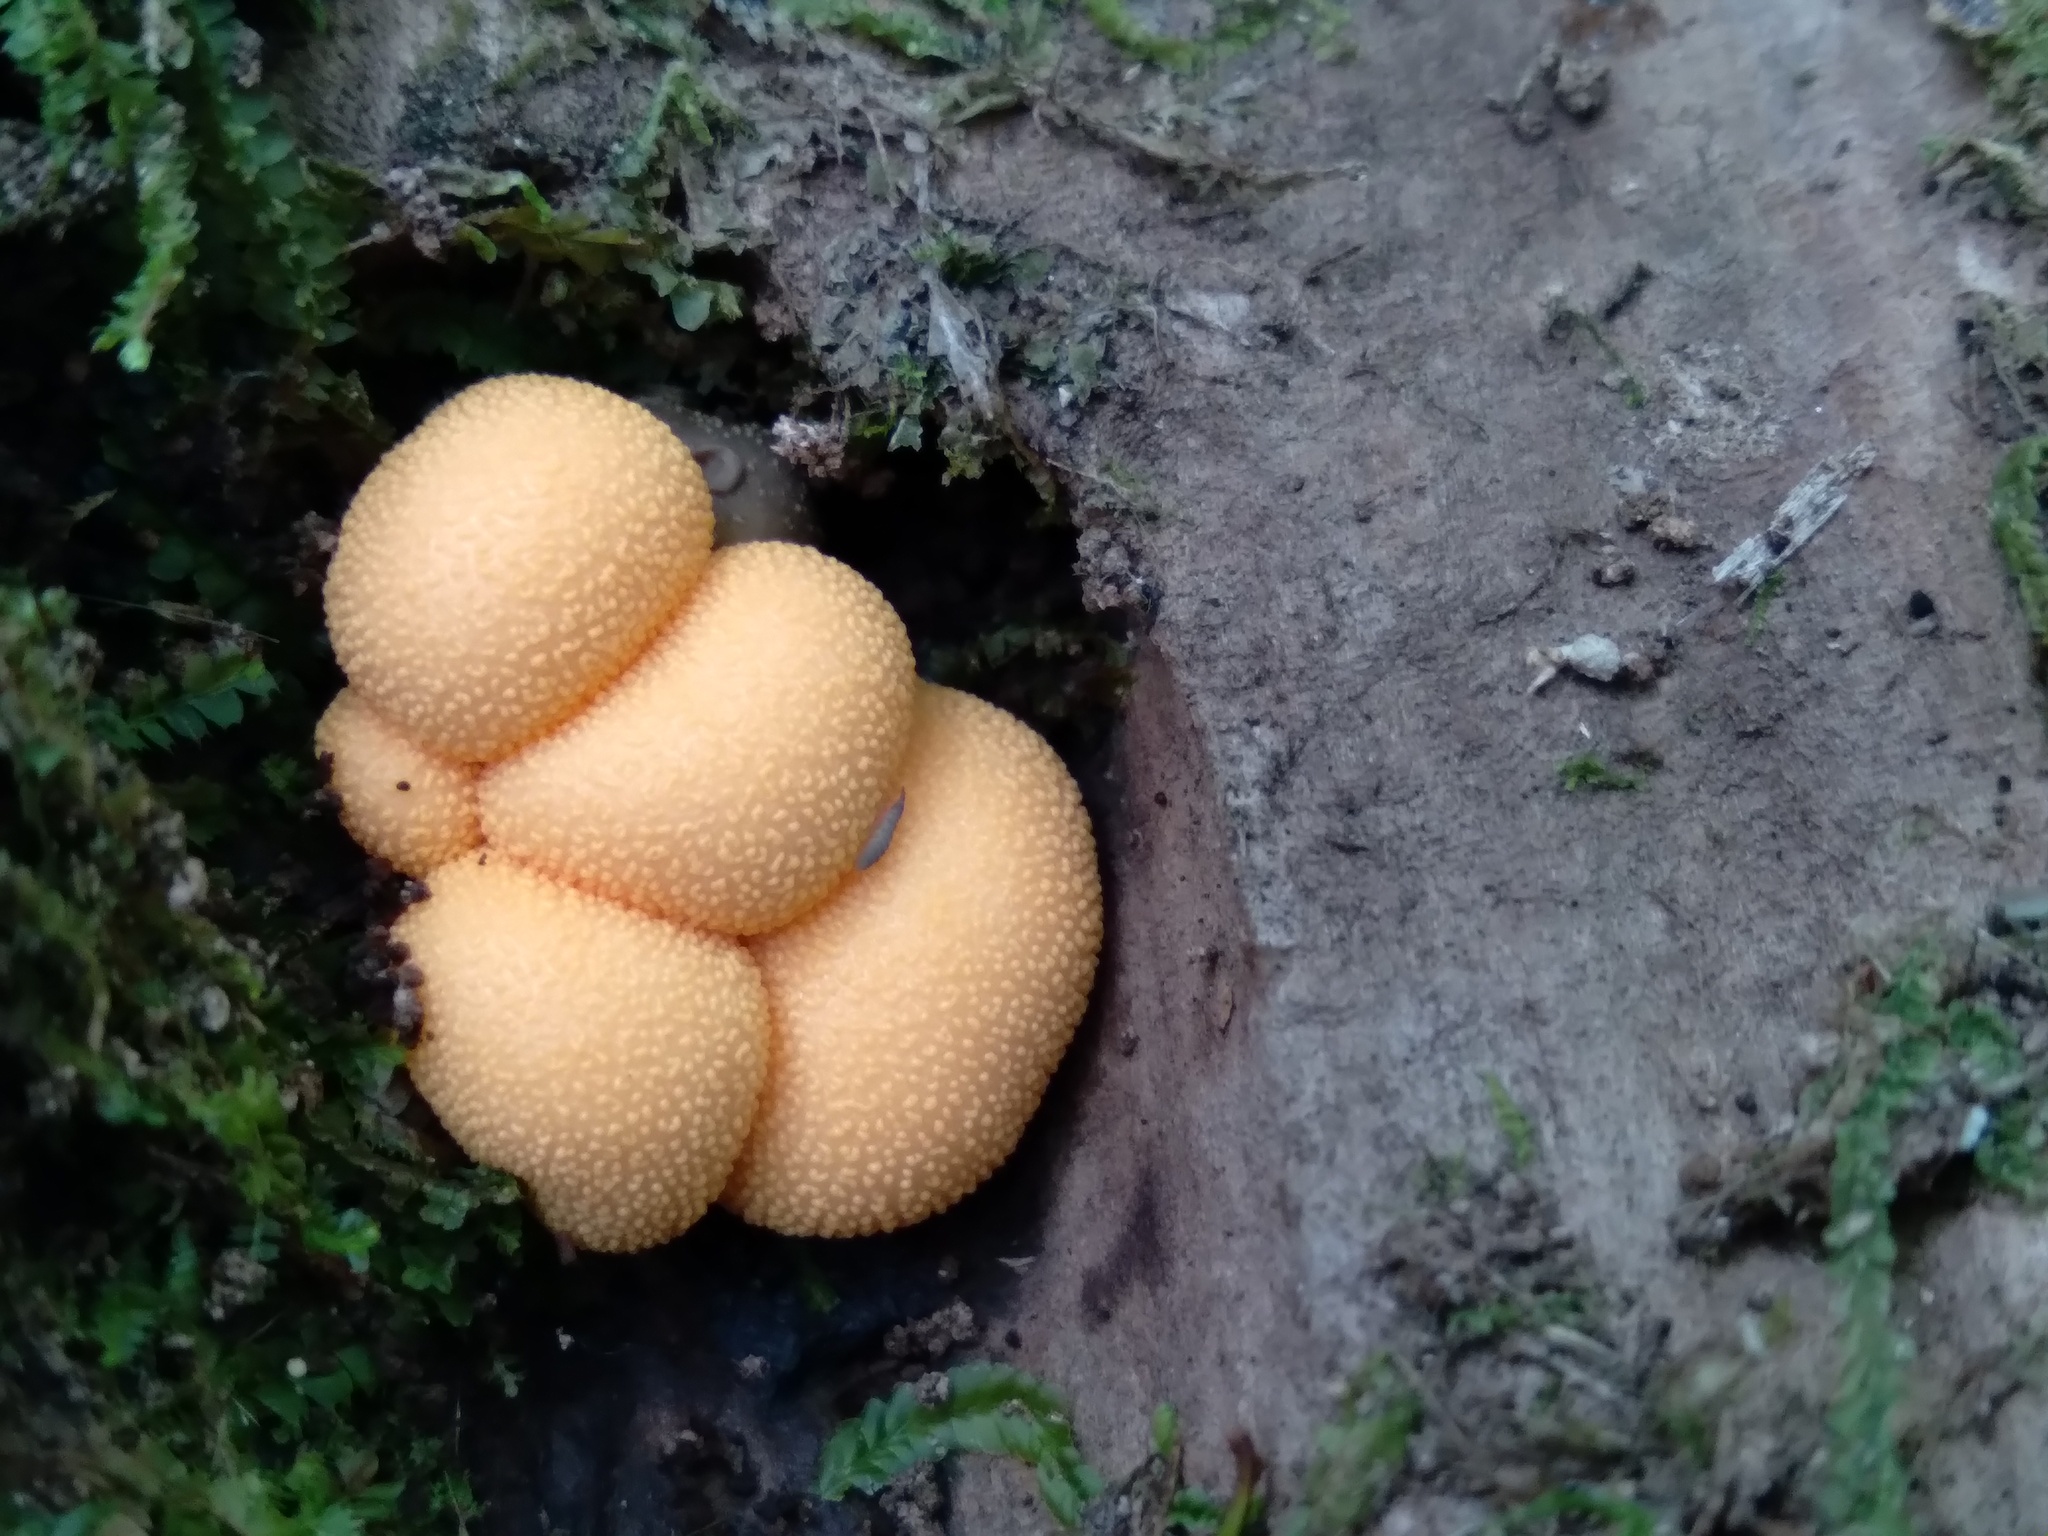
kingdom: Protozoa
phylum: Mycetozoa
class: Myxomycetes
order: Cribrariales
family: Tubiferaceae
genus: Lycogala
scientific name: Lycogala epidendrum
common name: Wolf's milk
